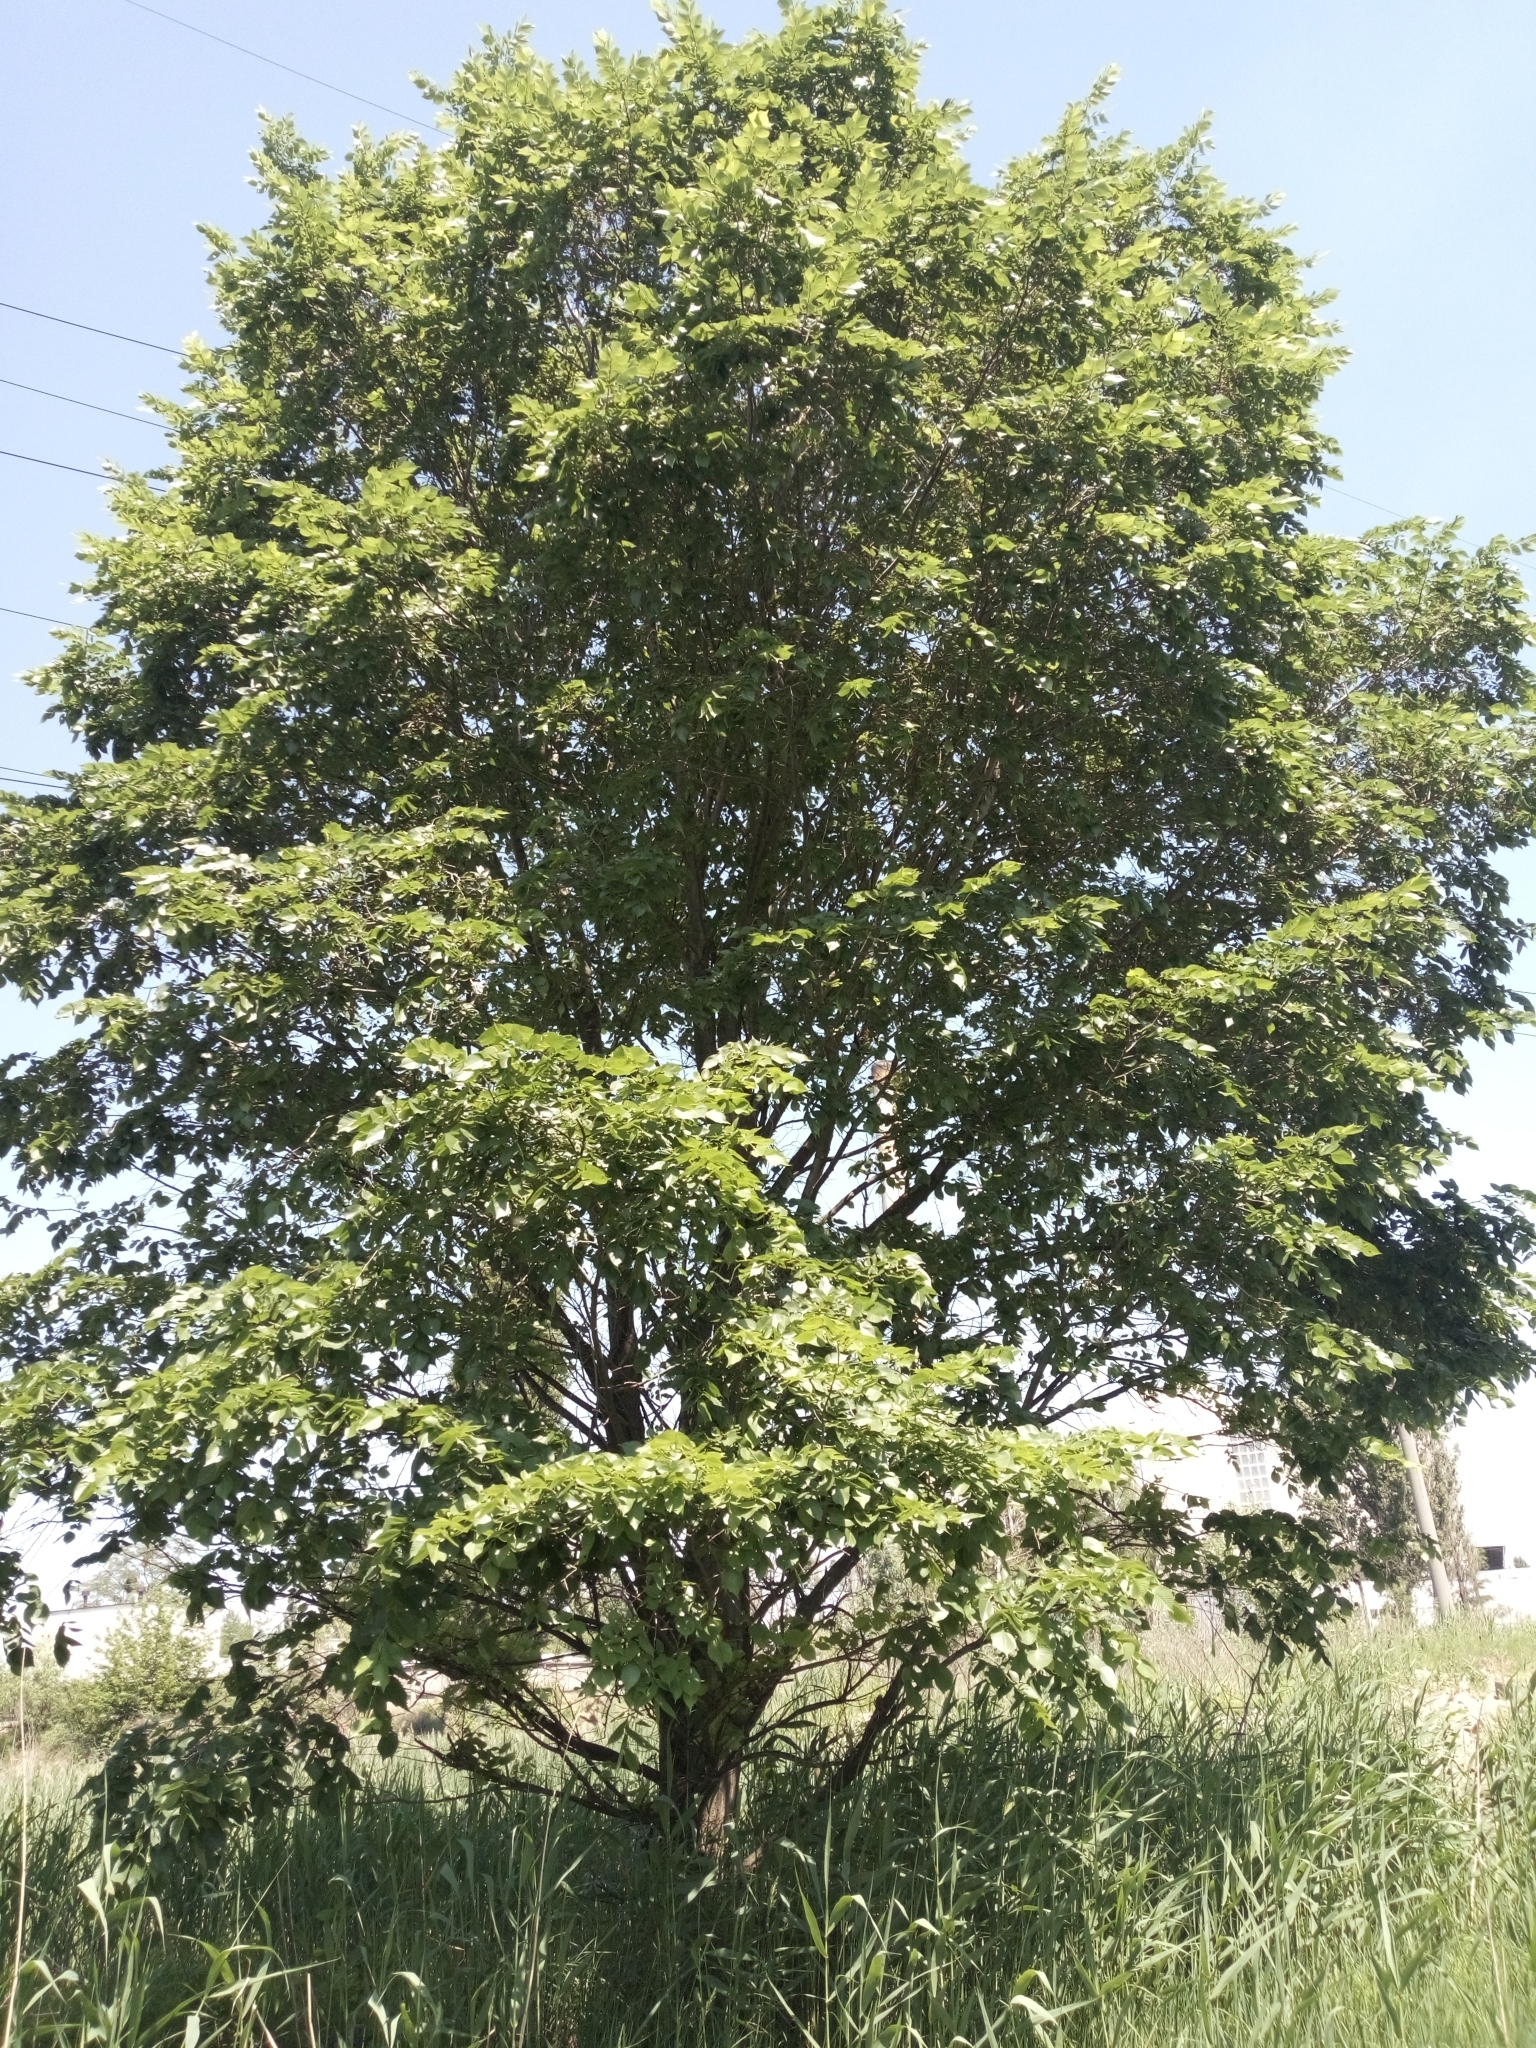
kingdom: Plantae
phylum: Tracheophyta
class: Magnoliopsida
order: Rosales
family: Ulmaceae
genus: Ulmus
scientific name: Ulmus laevis
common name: European white-elm
